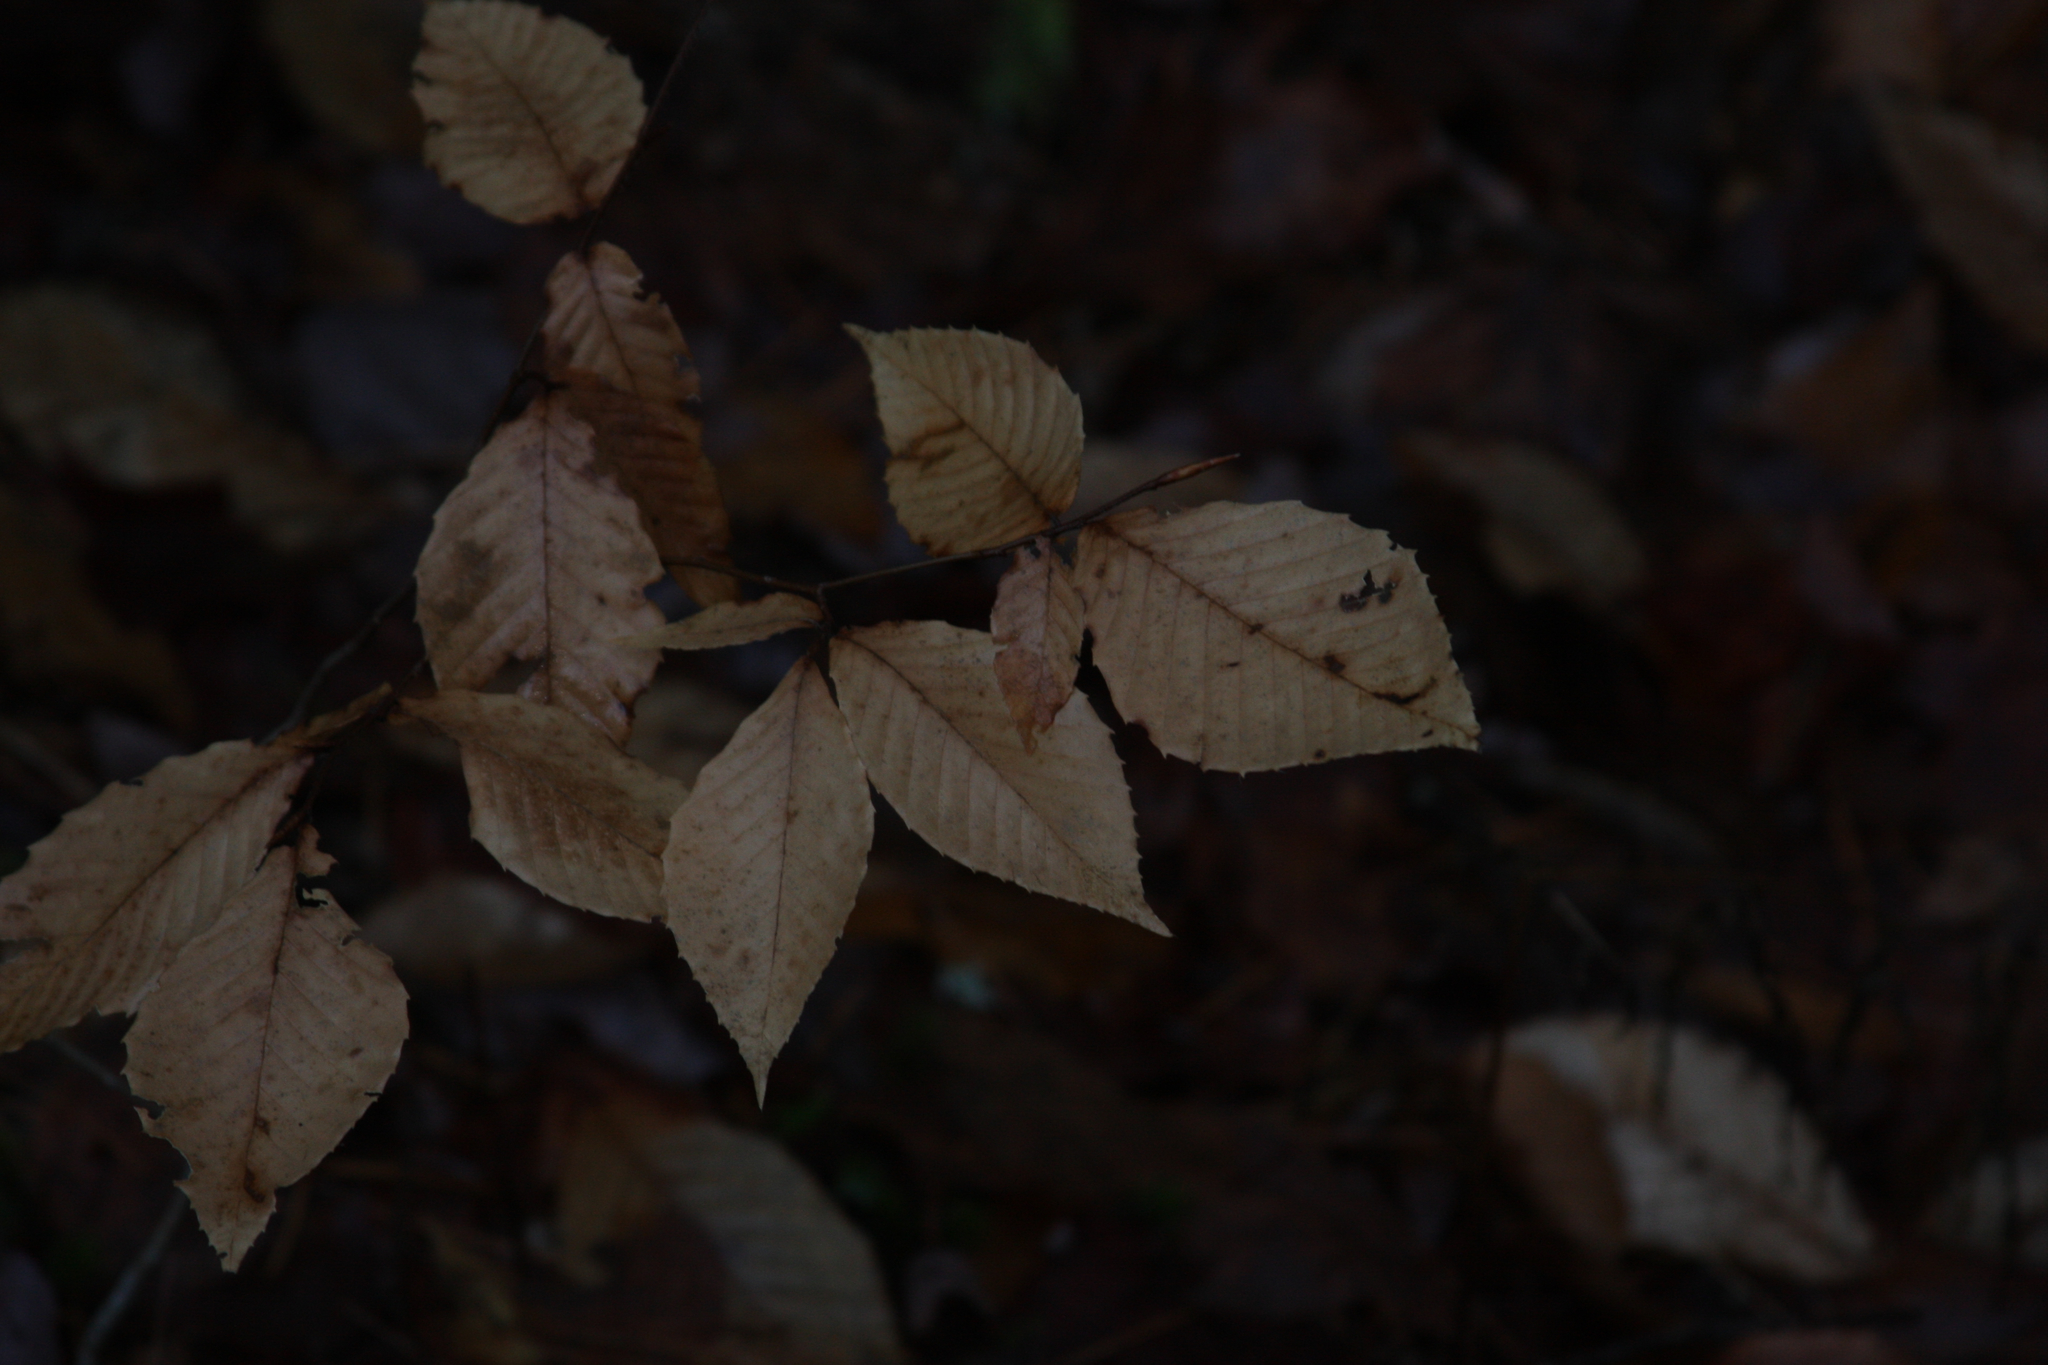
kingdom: Plantae
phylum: Tracheophyta
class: Magnoliopsida
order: Fagales
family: Fagaceae
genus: Fagus
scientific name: Fagus grandifolia
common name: American beech
